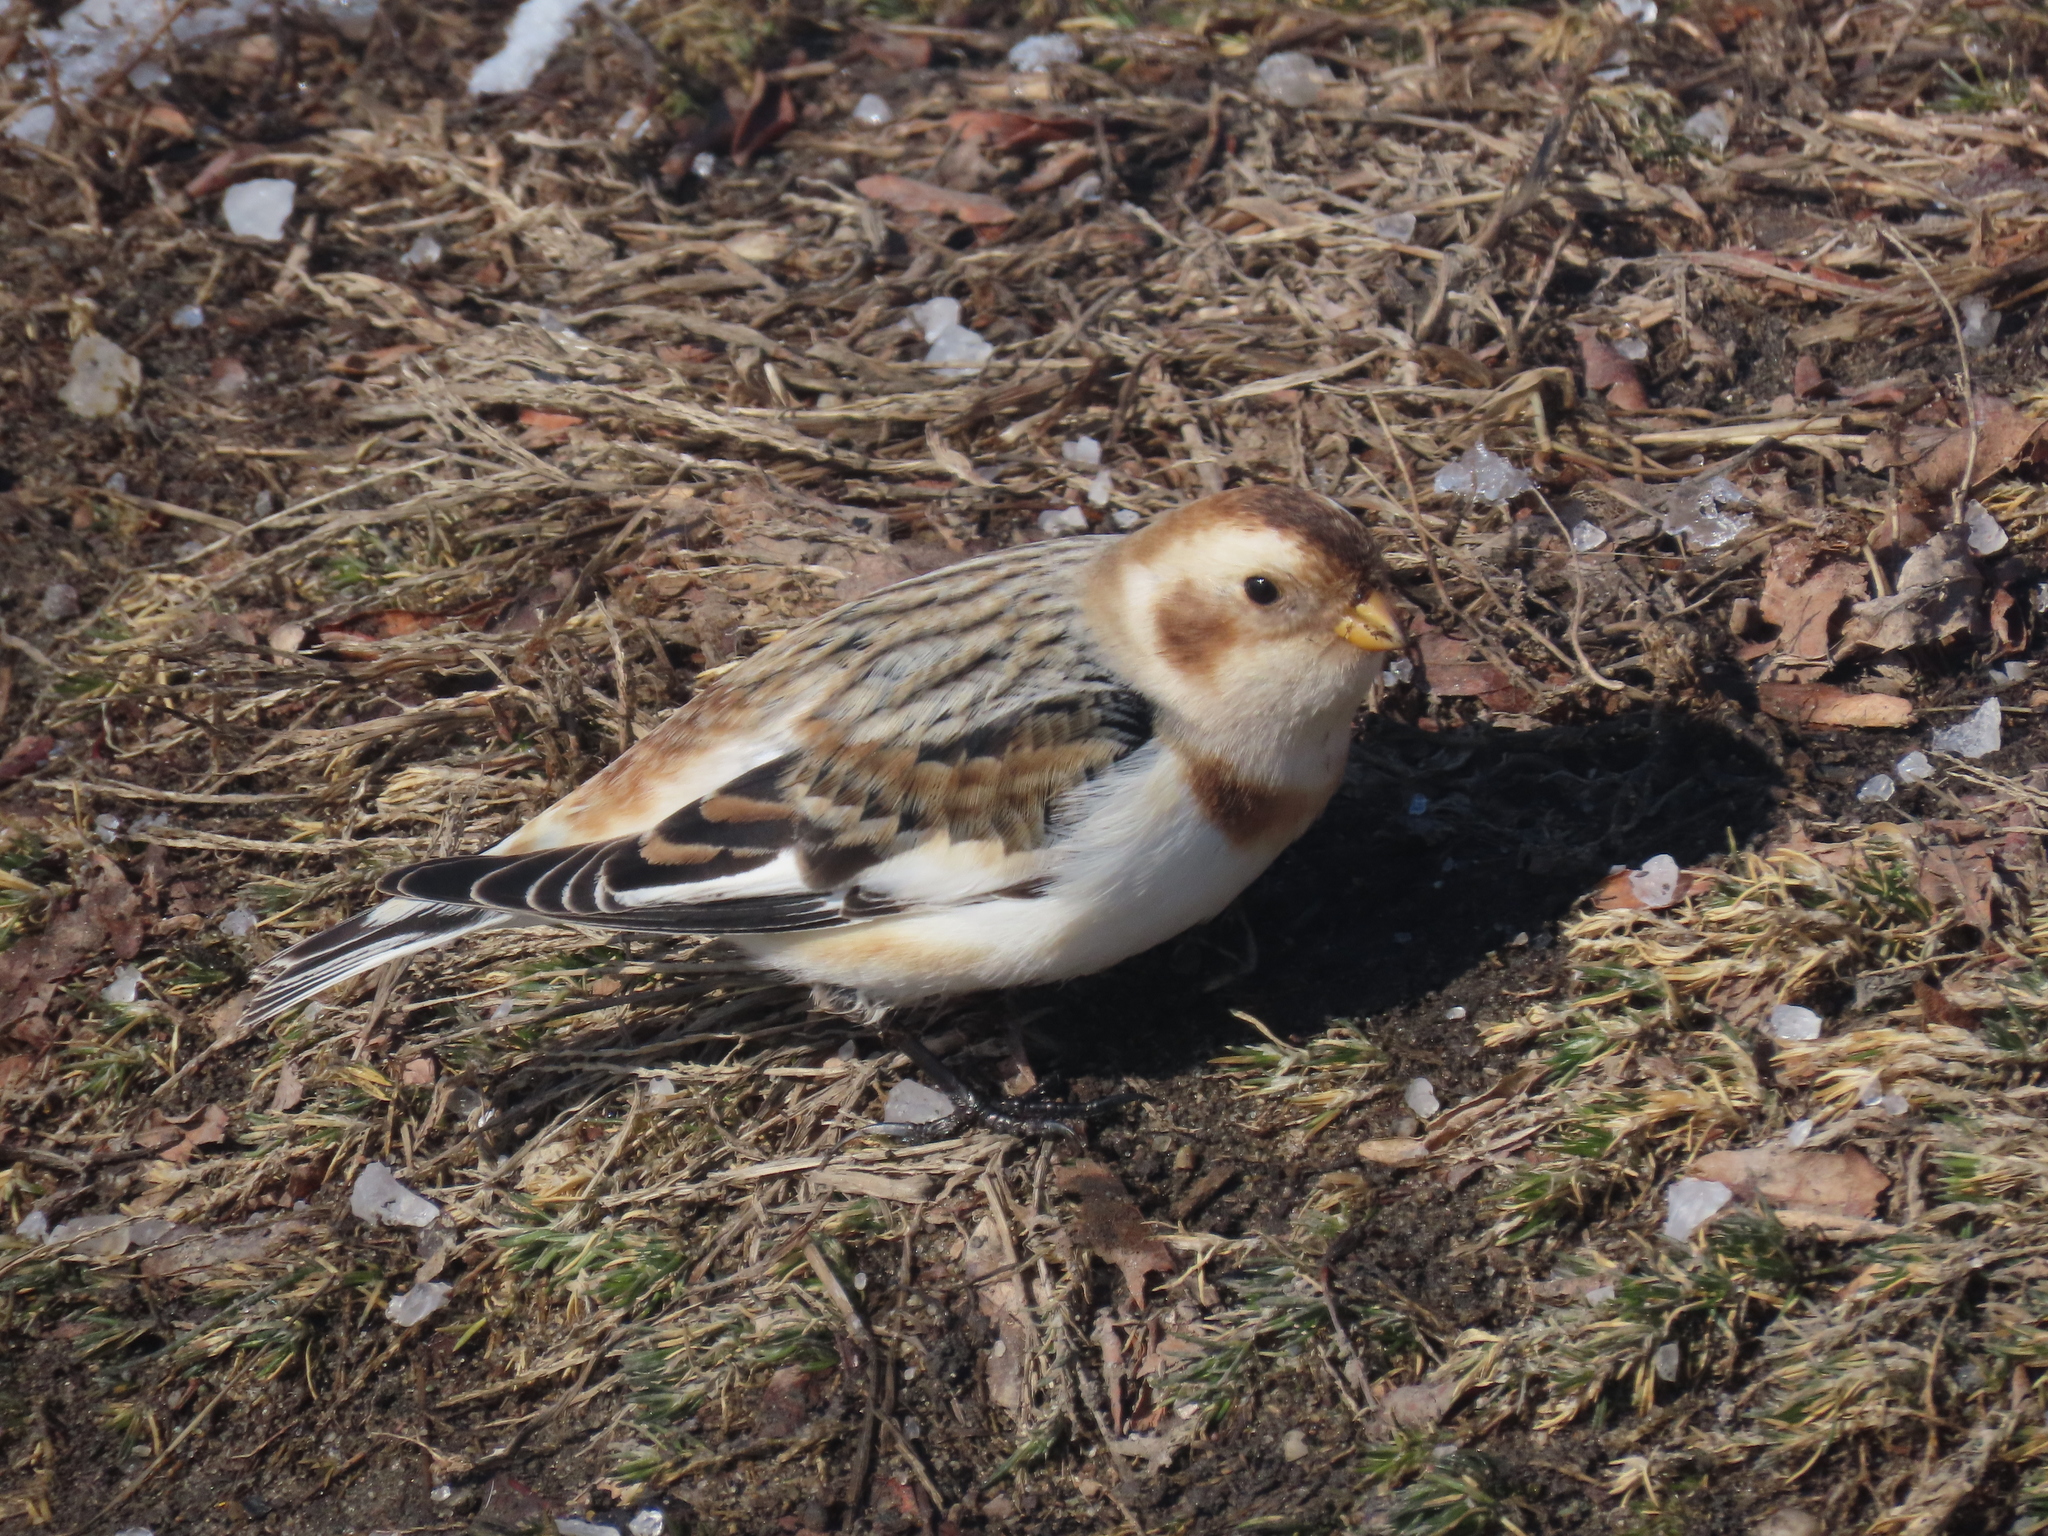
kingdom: Animalia
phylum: Chordata
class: Aves
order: Passeriformes
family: Calcariidae
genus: Plectrophenax
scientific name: Plectrophenax nivalis
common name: Snow bunting
